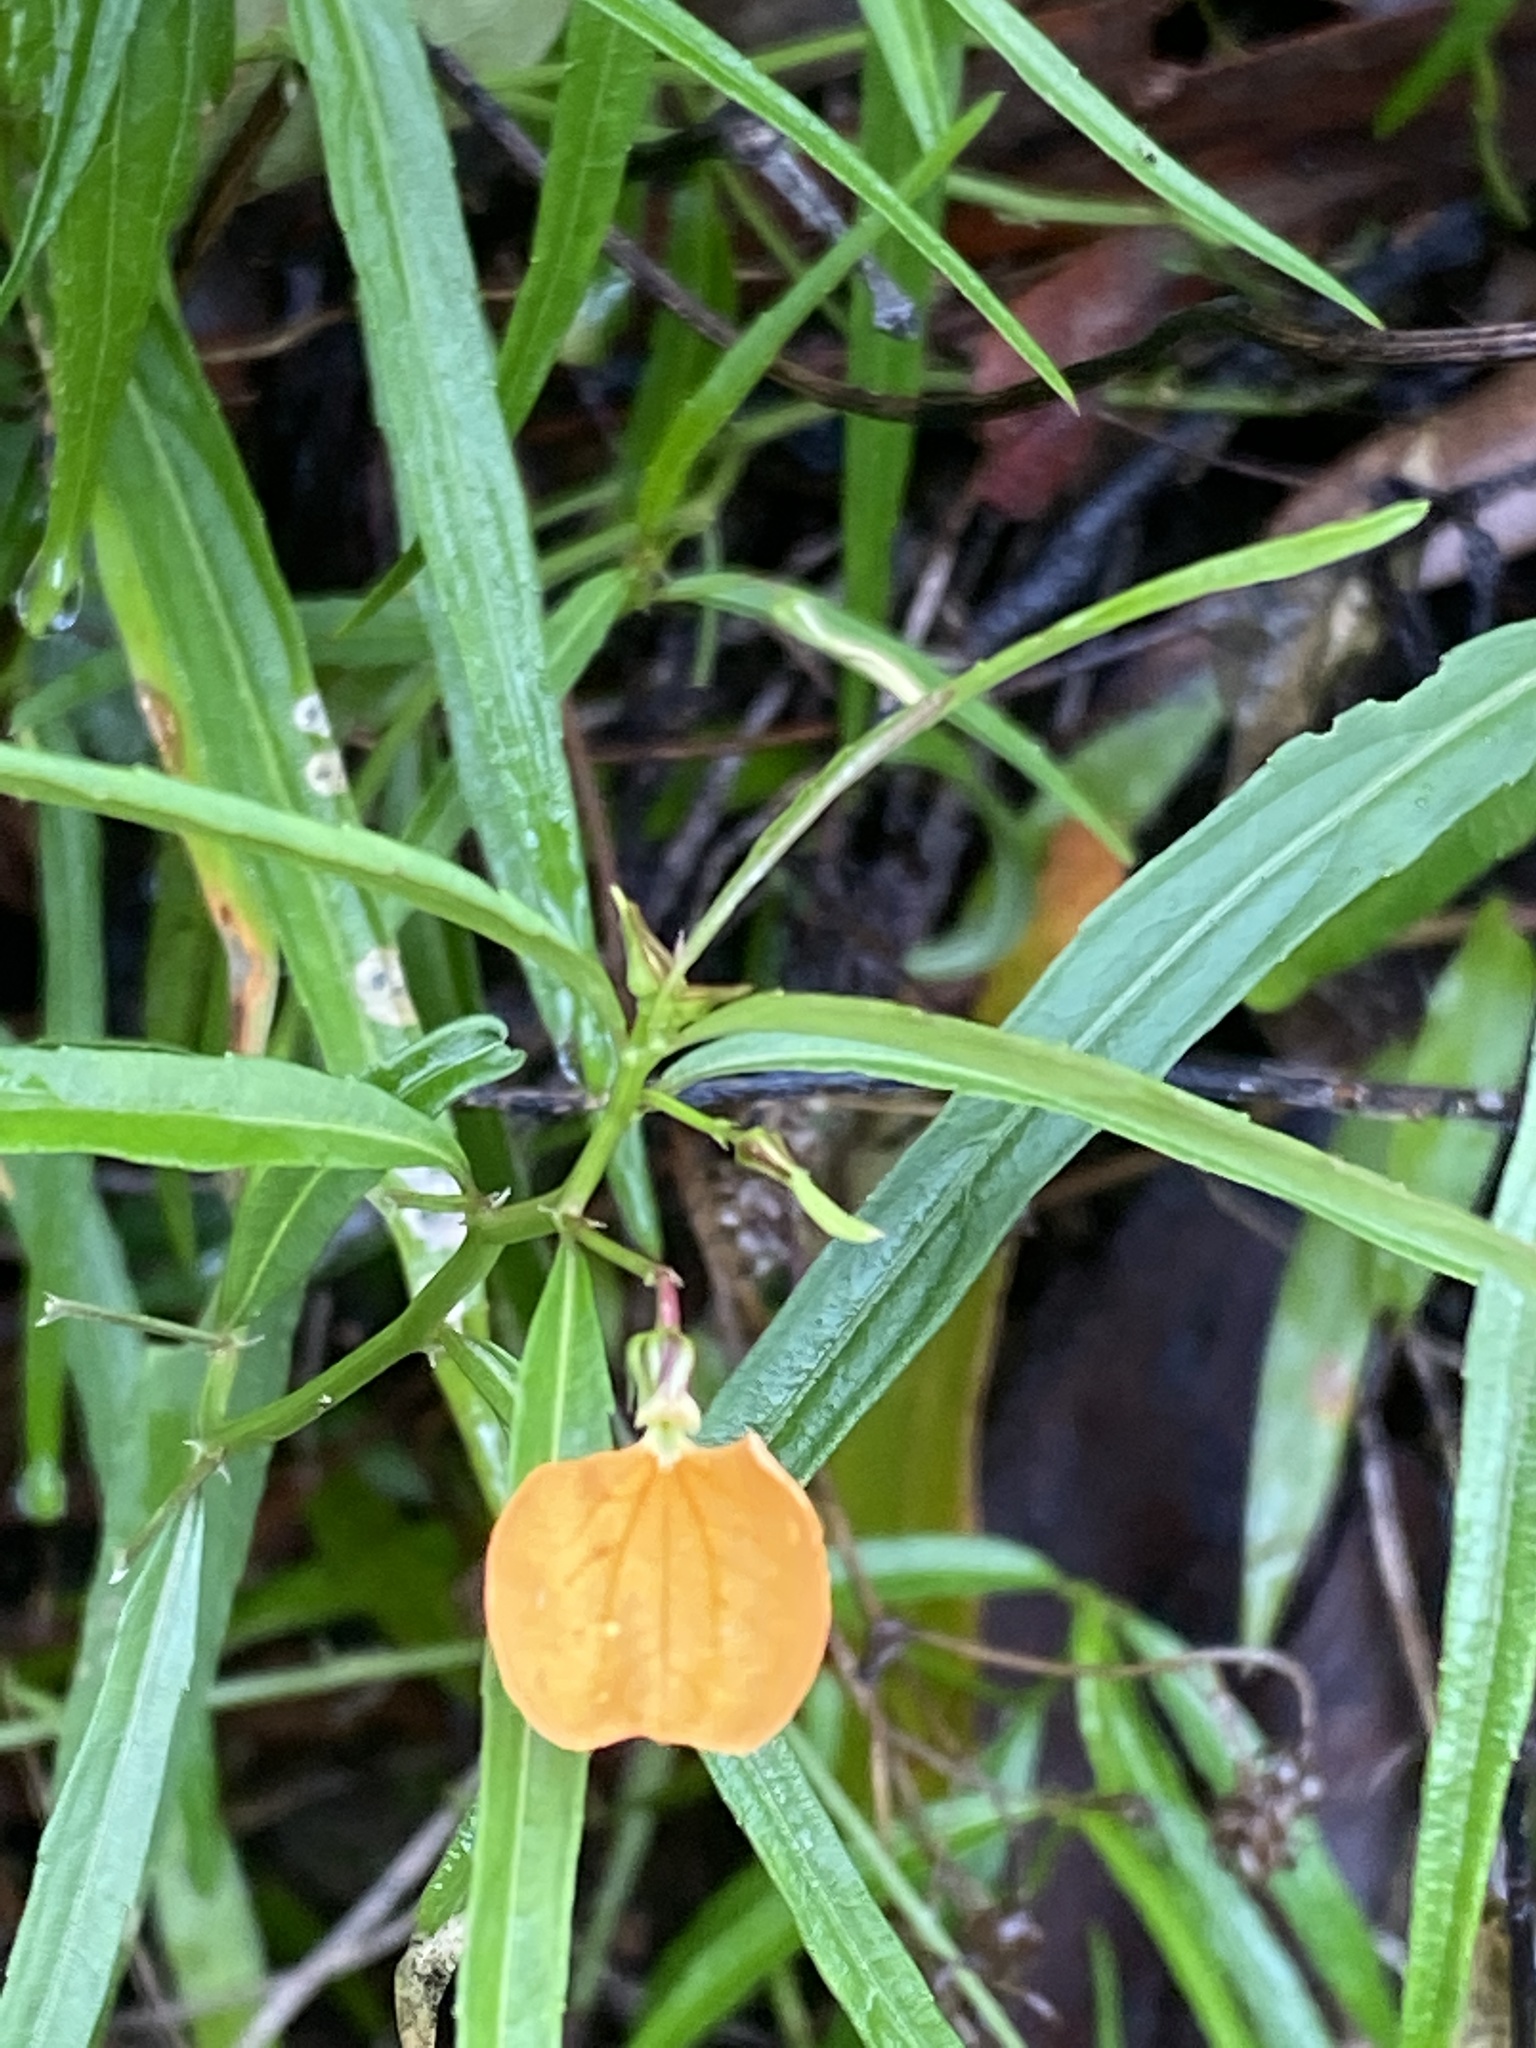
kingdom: Plantae
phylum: Tracheophyta
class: Magnoliopsida
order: Malpighiales
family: Violaceae
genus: Pigea
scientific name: Pigea stellarioides
